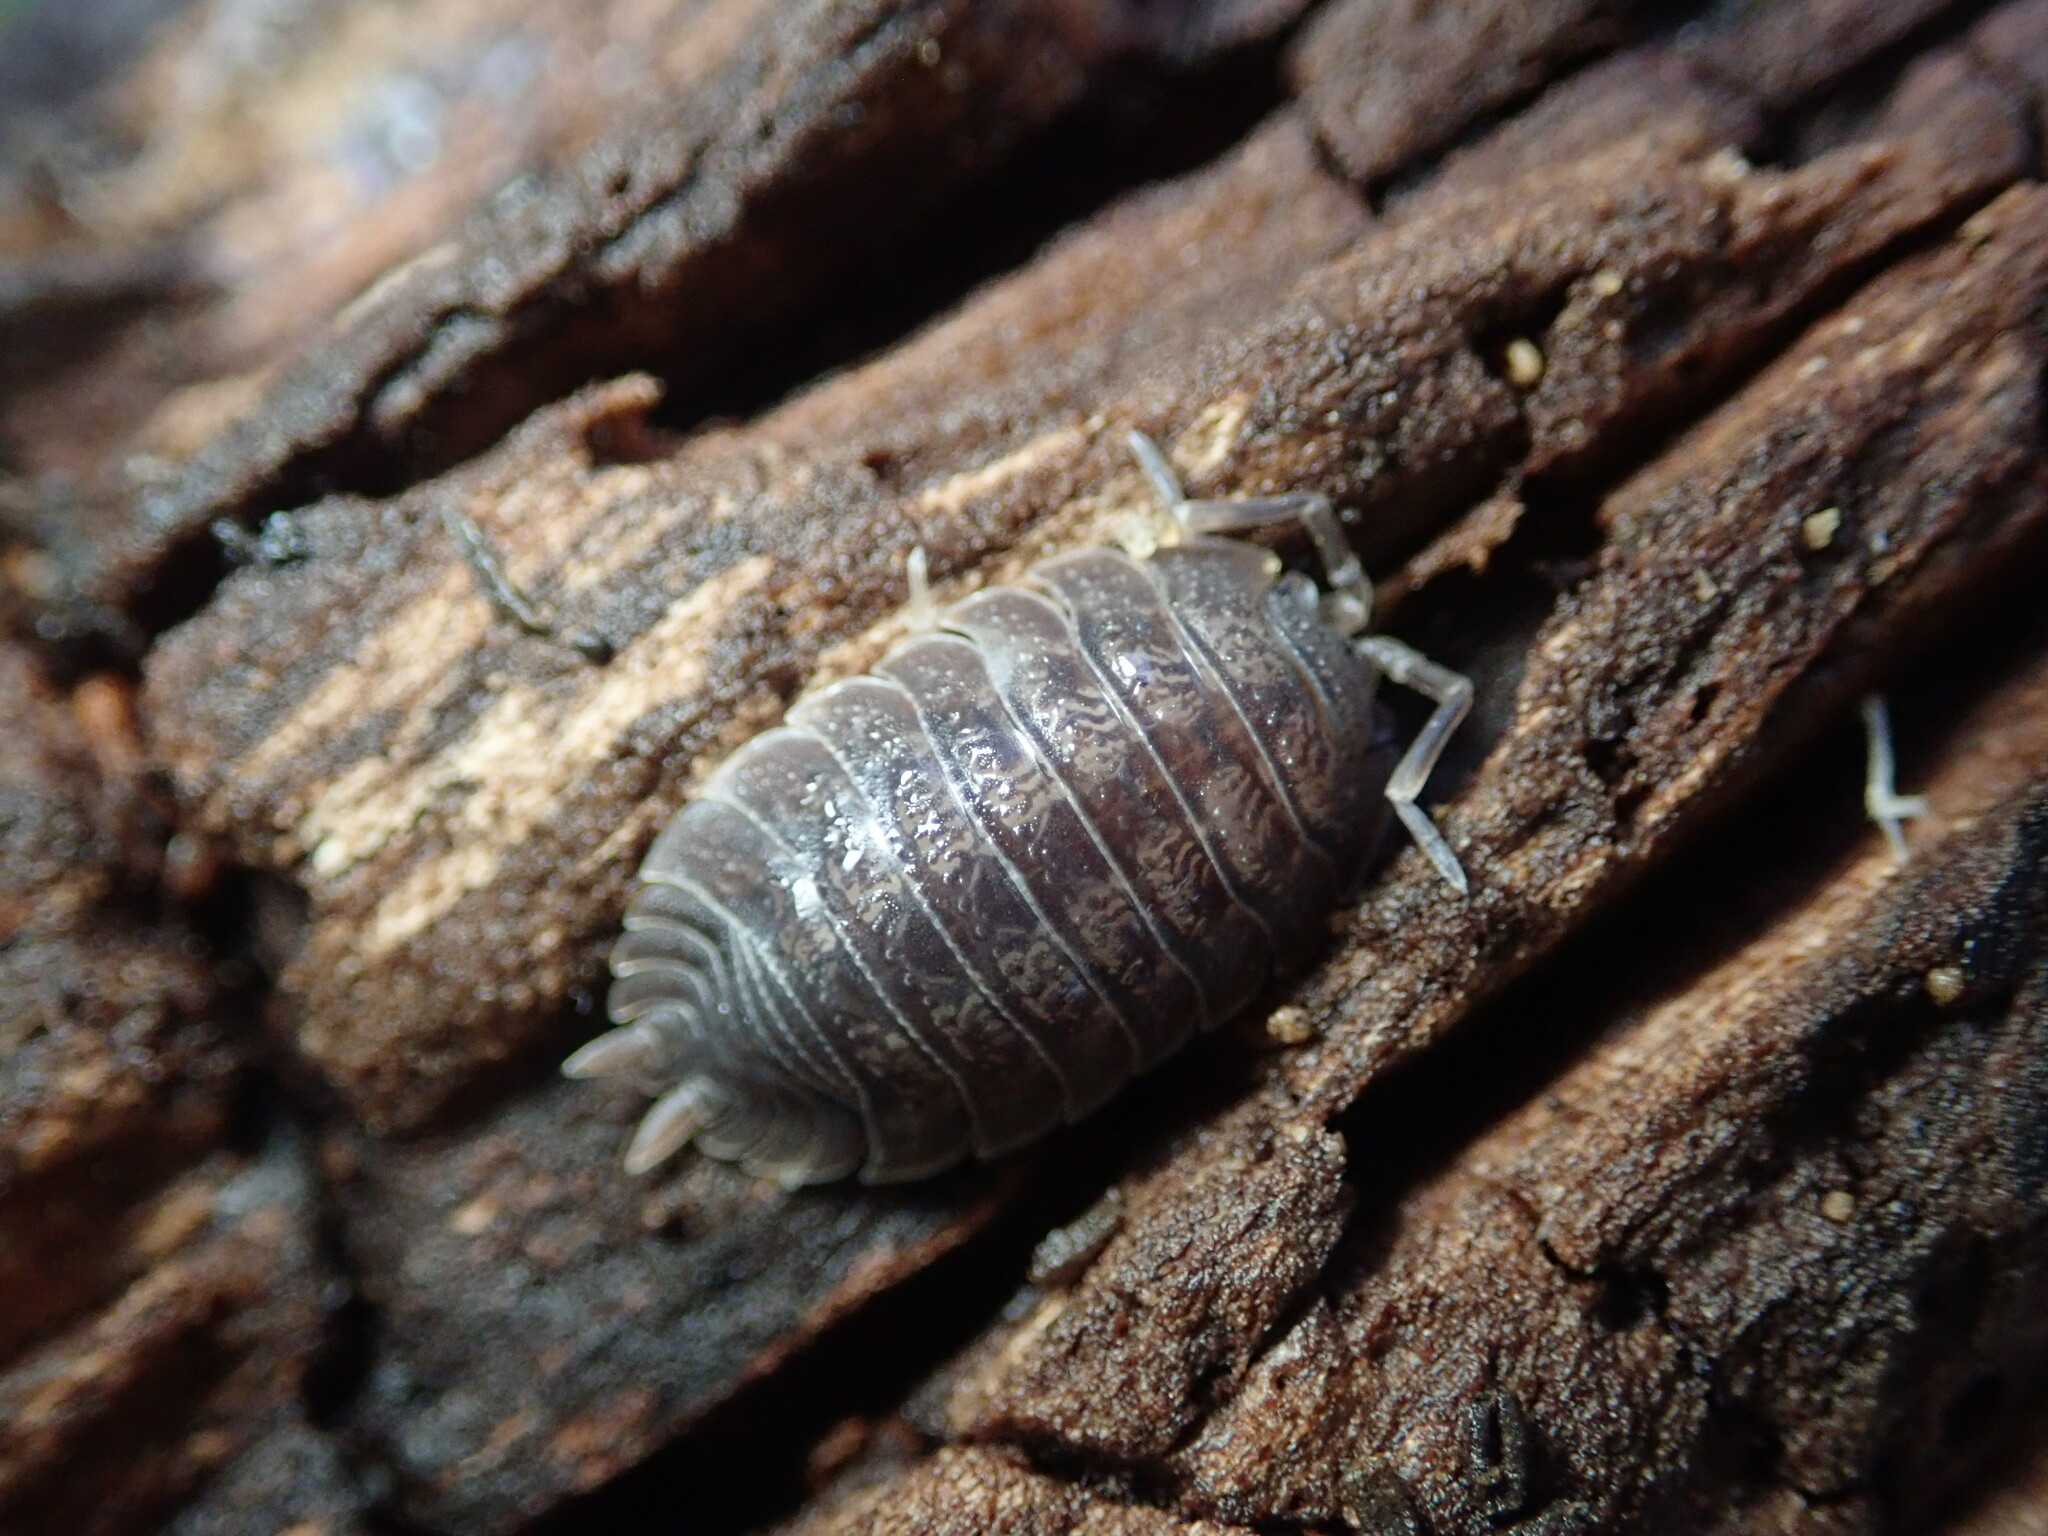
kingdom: Animalia
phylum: Arthropoda
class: Malacostraca
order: Isopoda
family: Porcellionidae
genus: Porcellio
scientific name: Porcellio dilatatus
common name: Isopod
